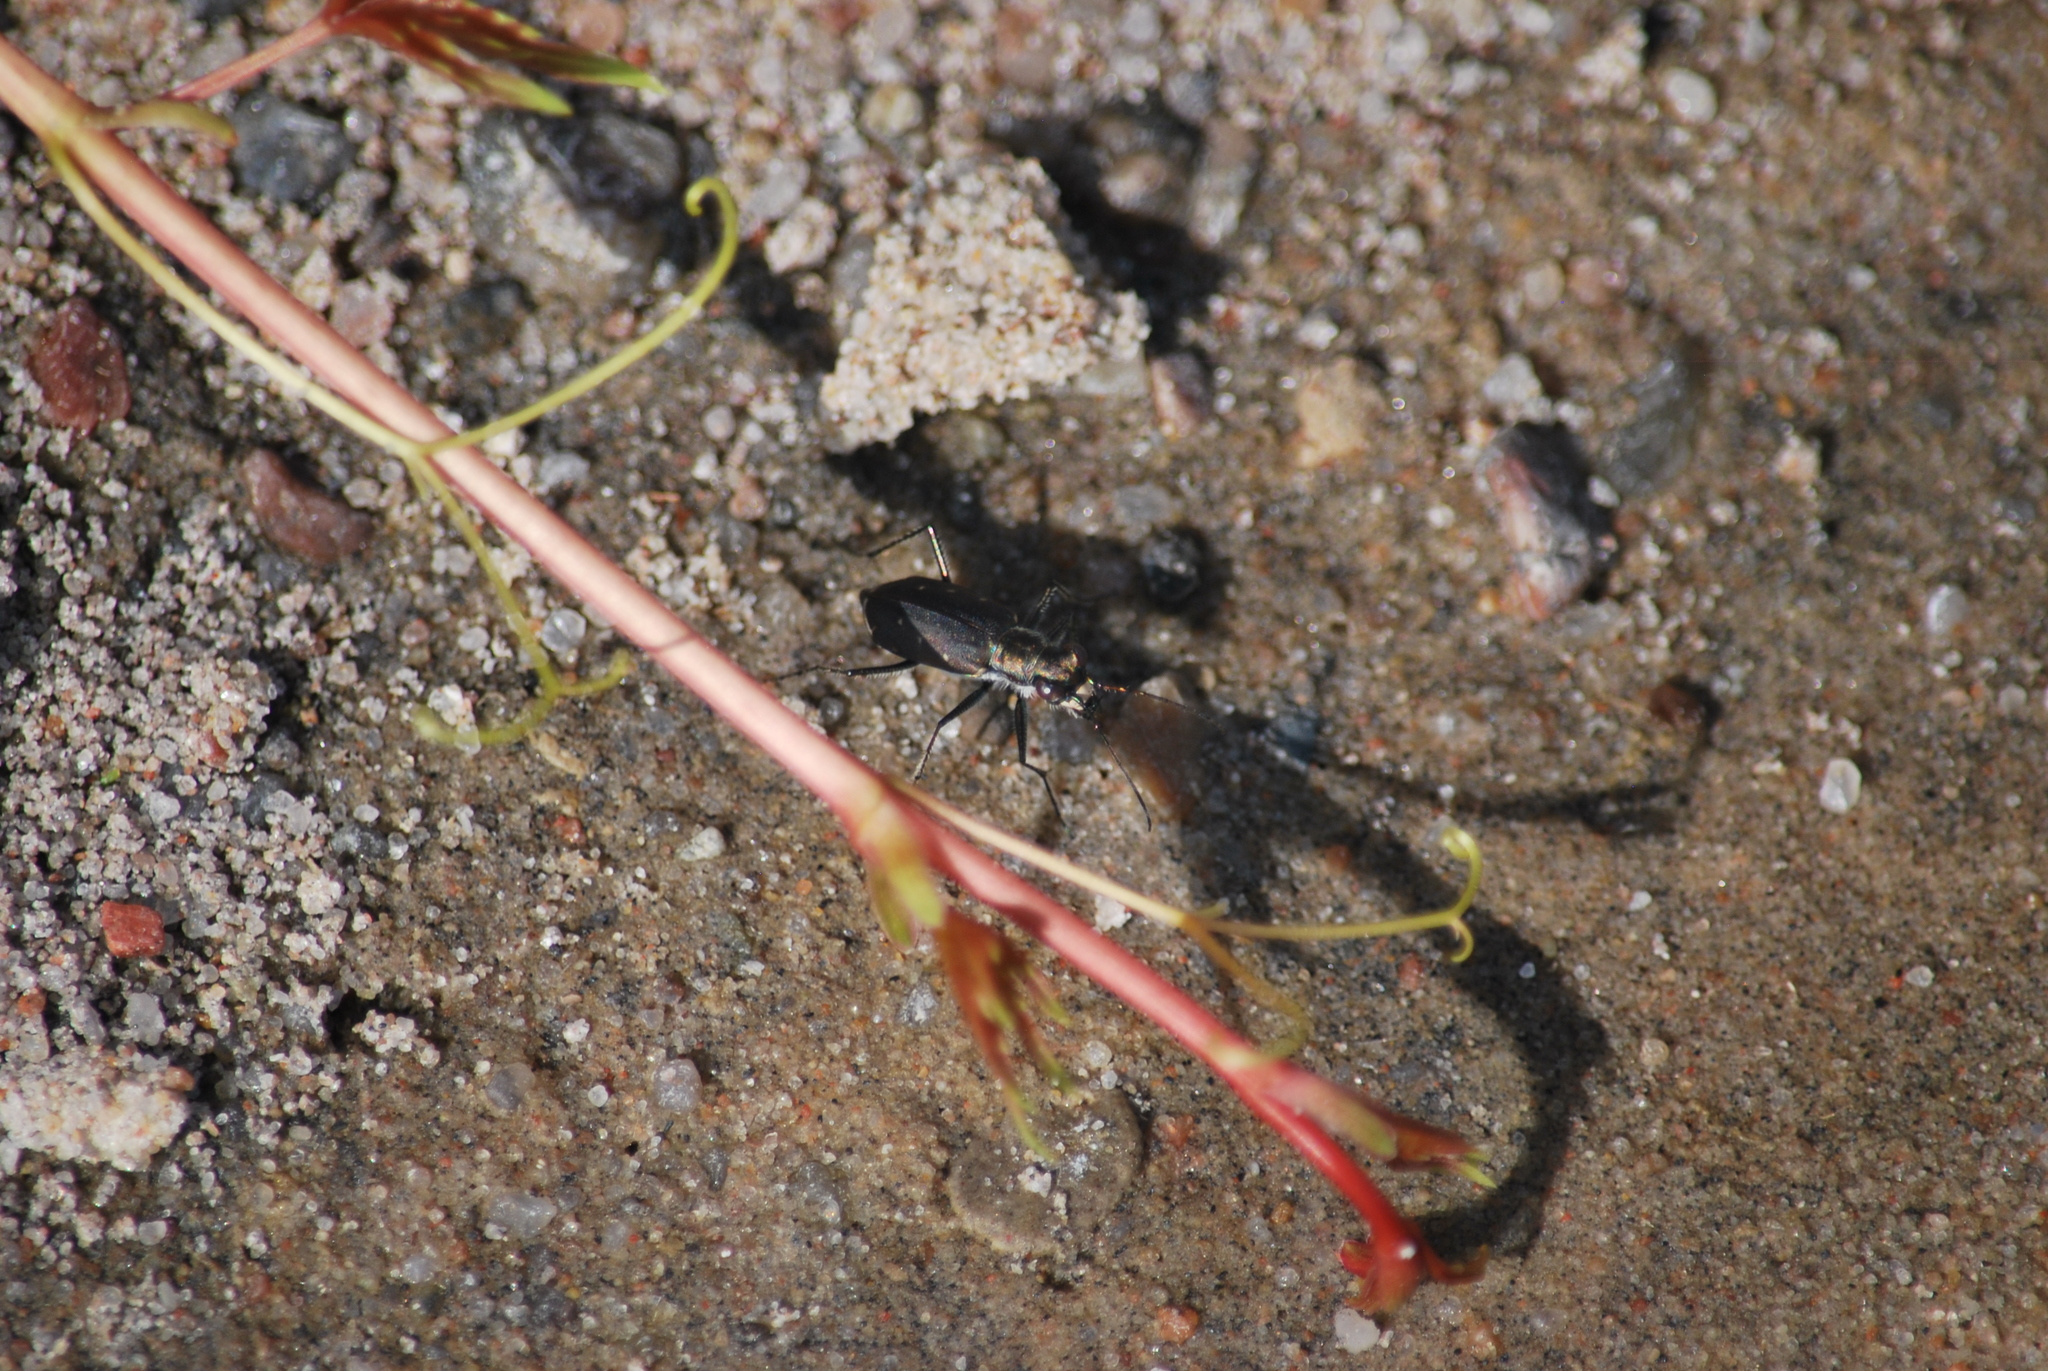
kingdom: Animalia
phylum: Arthropoda
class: Insecta
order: Coleoptera
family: Carabidae
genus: Cicindela
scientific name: Cicindela punctulata
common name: Punctured tiger beetle
